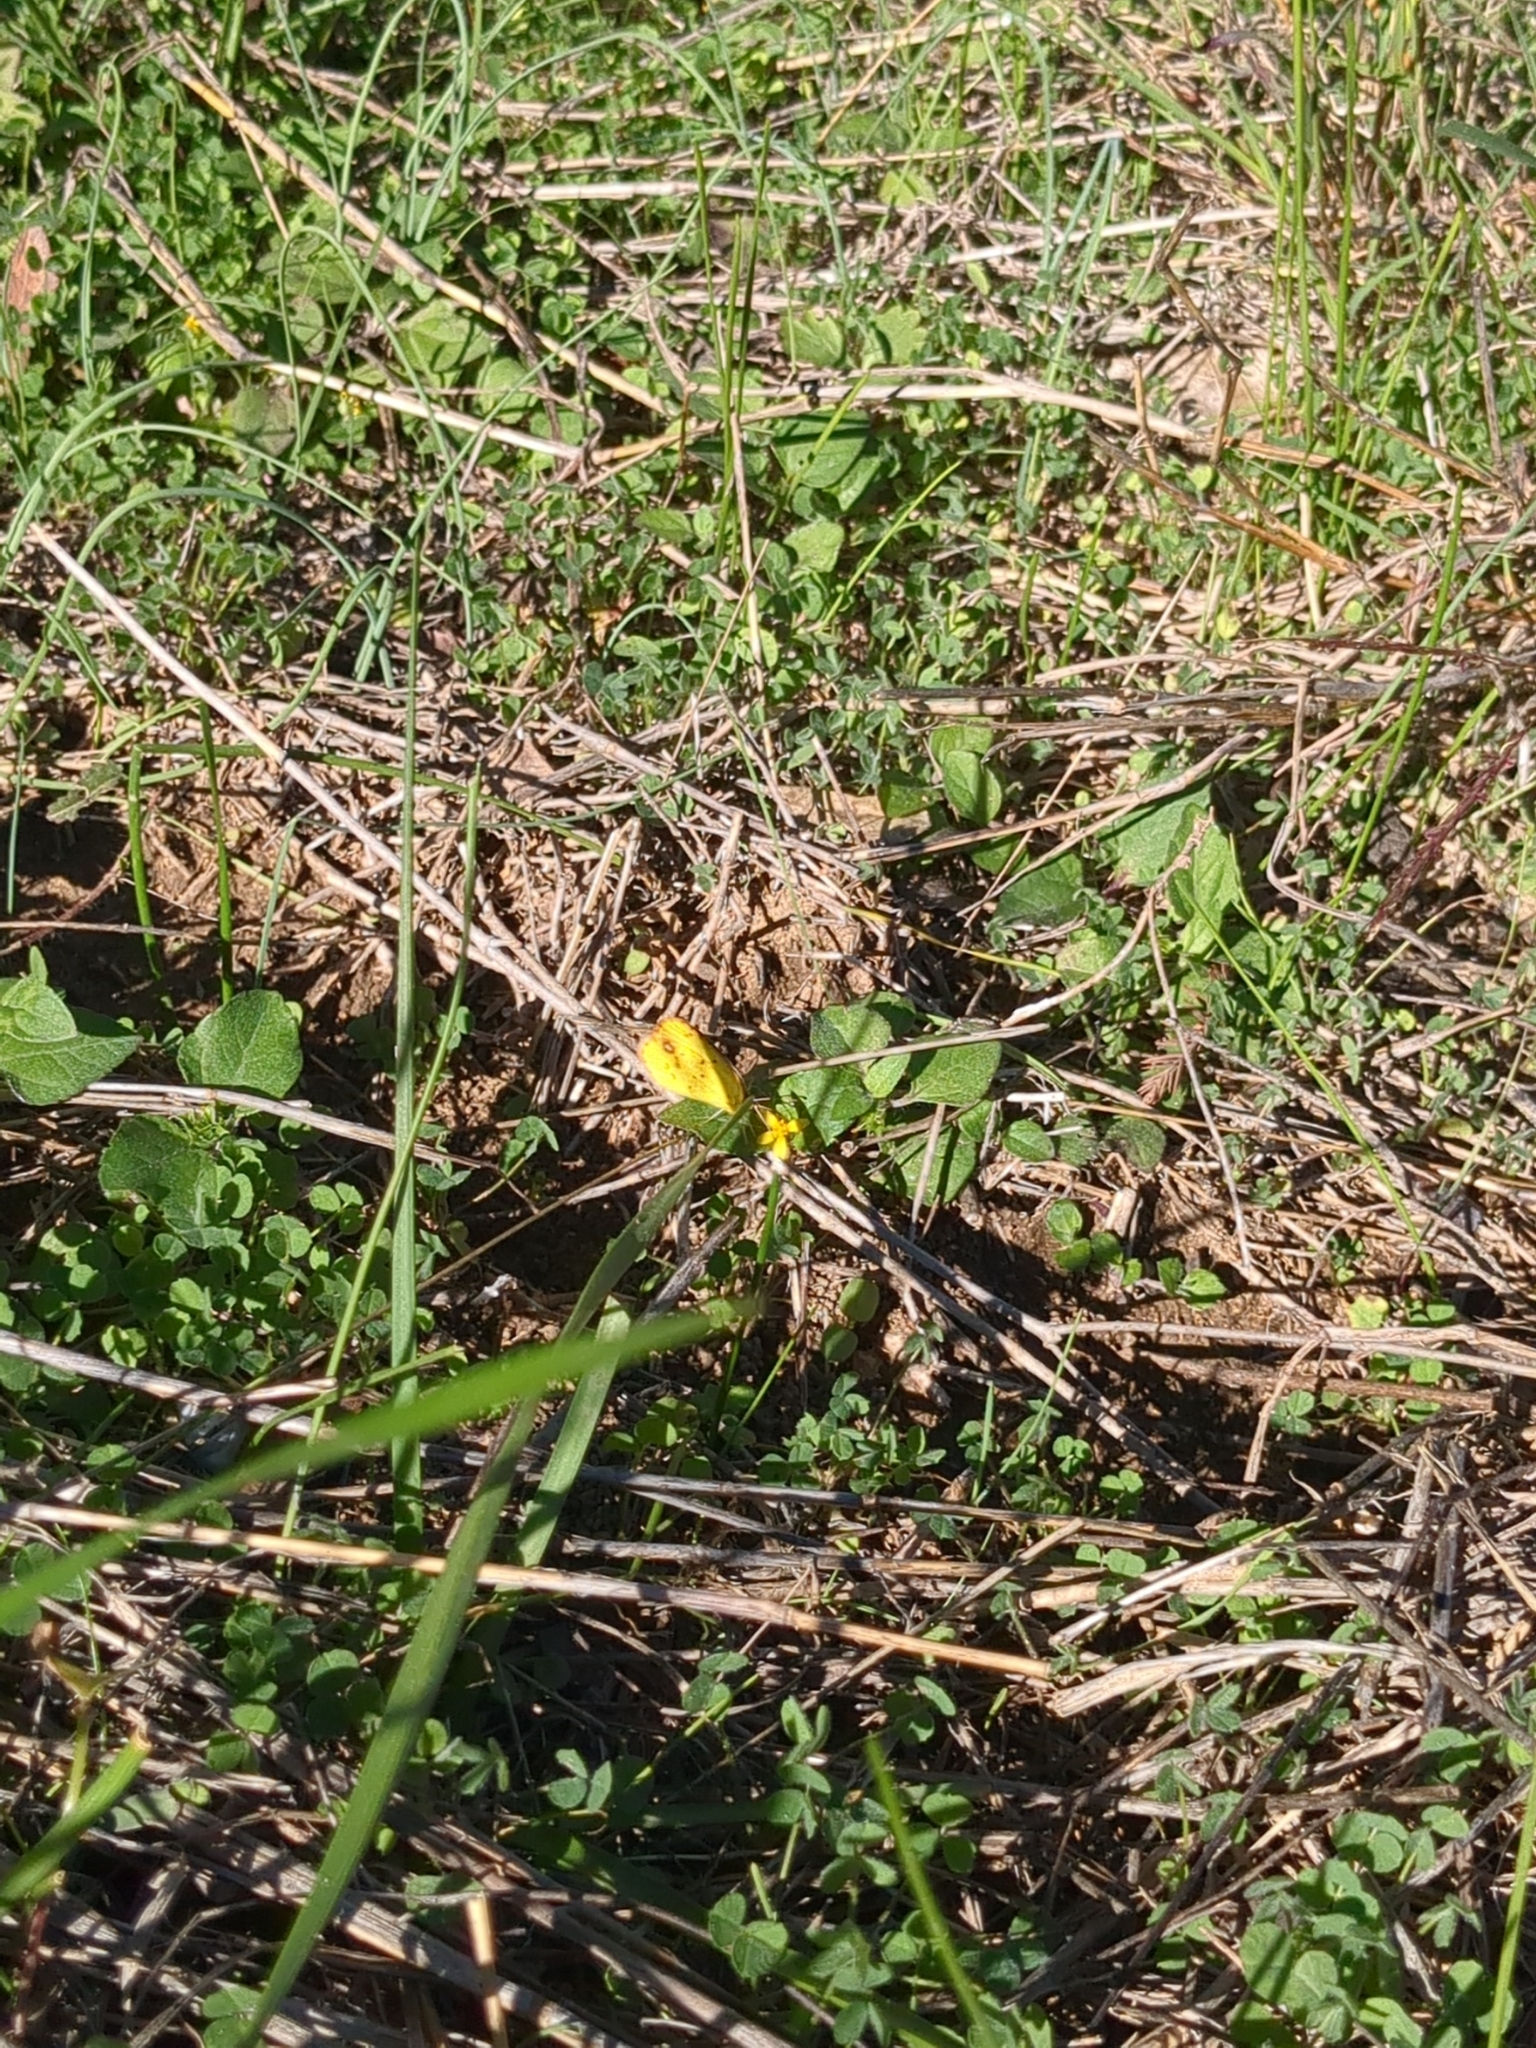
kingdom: Animalia
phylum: Arthropoda
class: Insecta
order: Lepidoptera
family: Pieridae
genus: Pyrisitia
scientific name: Pyrisitia lisa
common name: Little yellow
